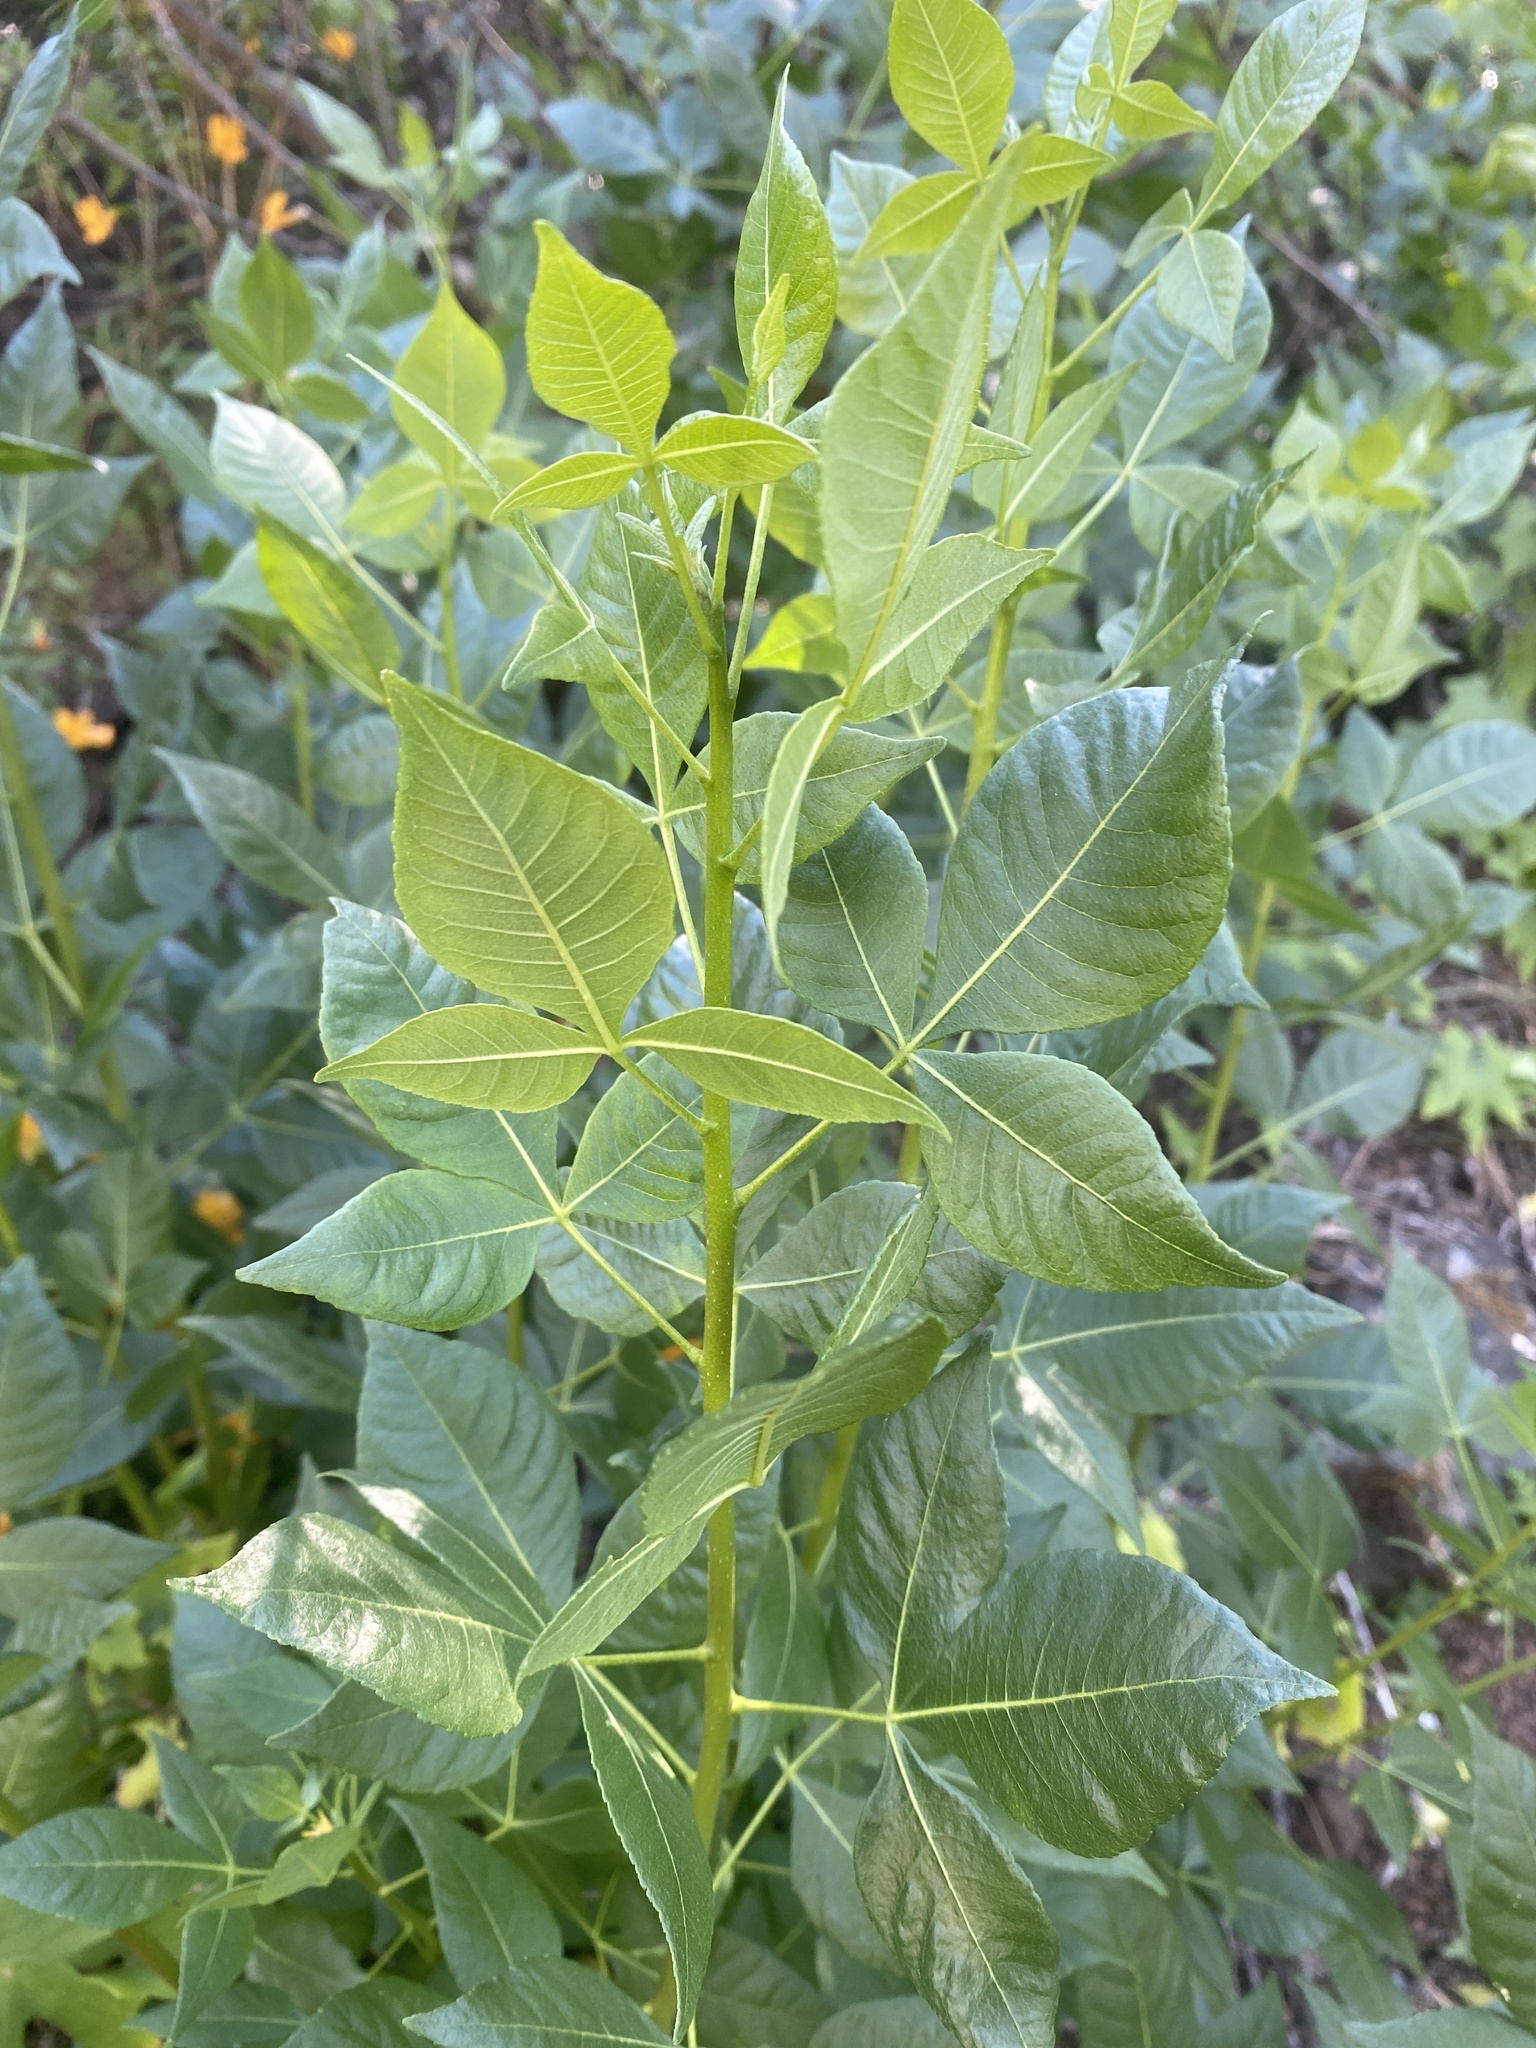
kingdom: Plantae
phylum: Tracheophyta
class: Magnoliopsida
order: Sapindales
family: Rutaceae
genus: Ptelea
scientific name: Ptelea crenulata
